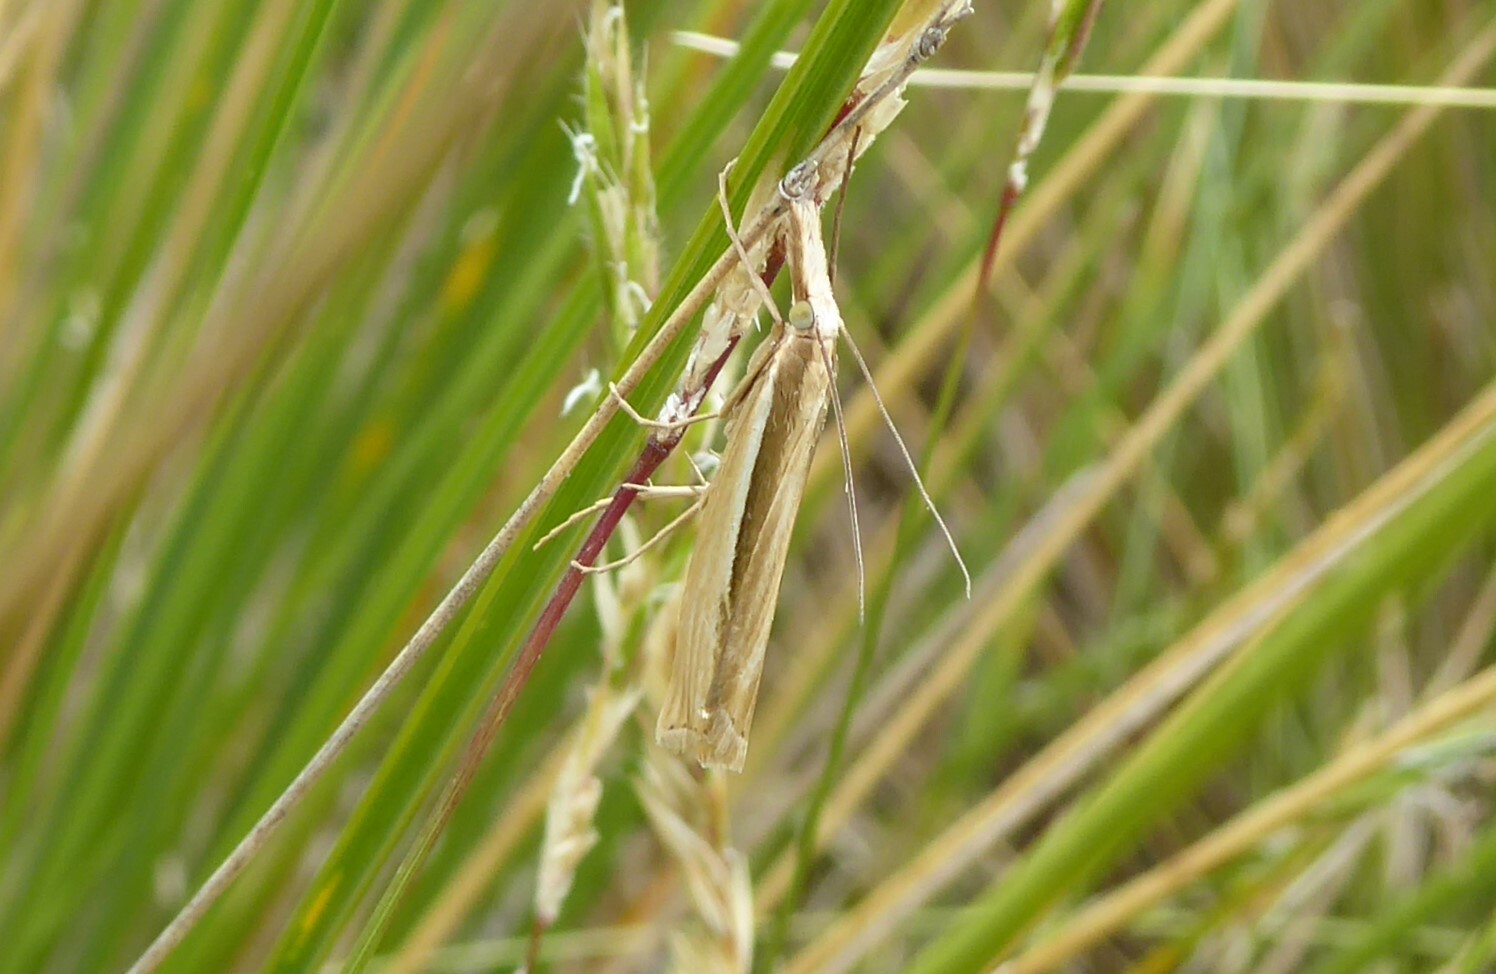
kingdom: Animalia
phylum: Arthropoda
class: Insecta
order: Lepidoptera
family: Crambidae
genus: Orocrambus
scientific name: Orocrambus ramosellus
